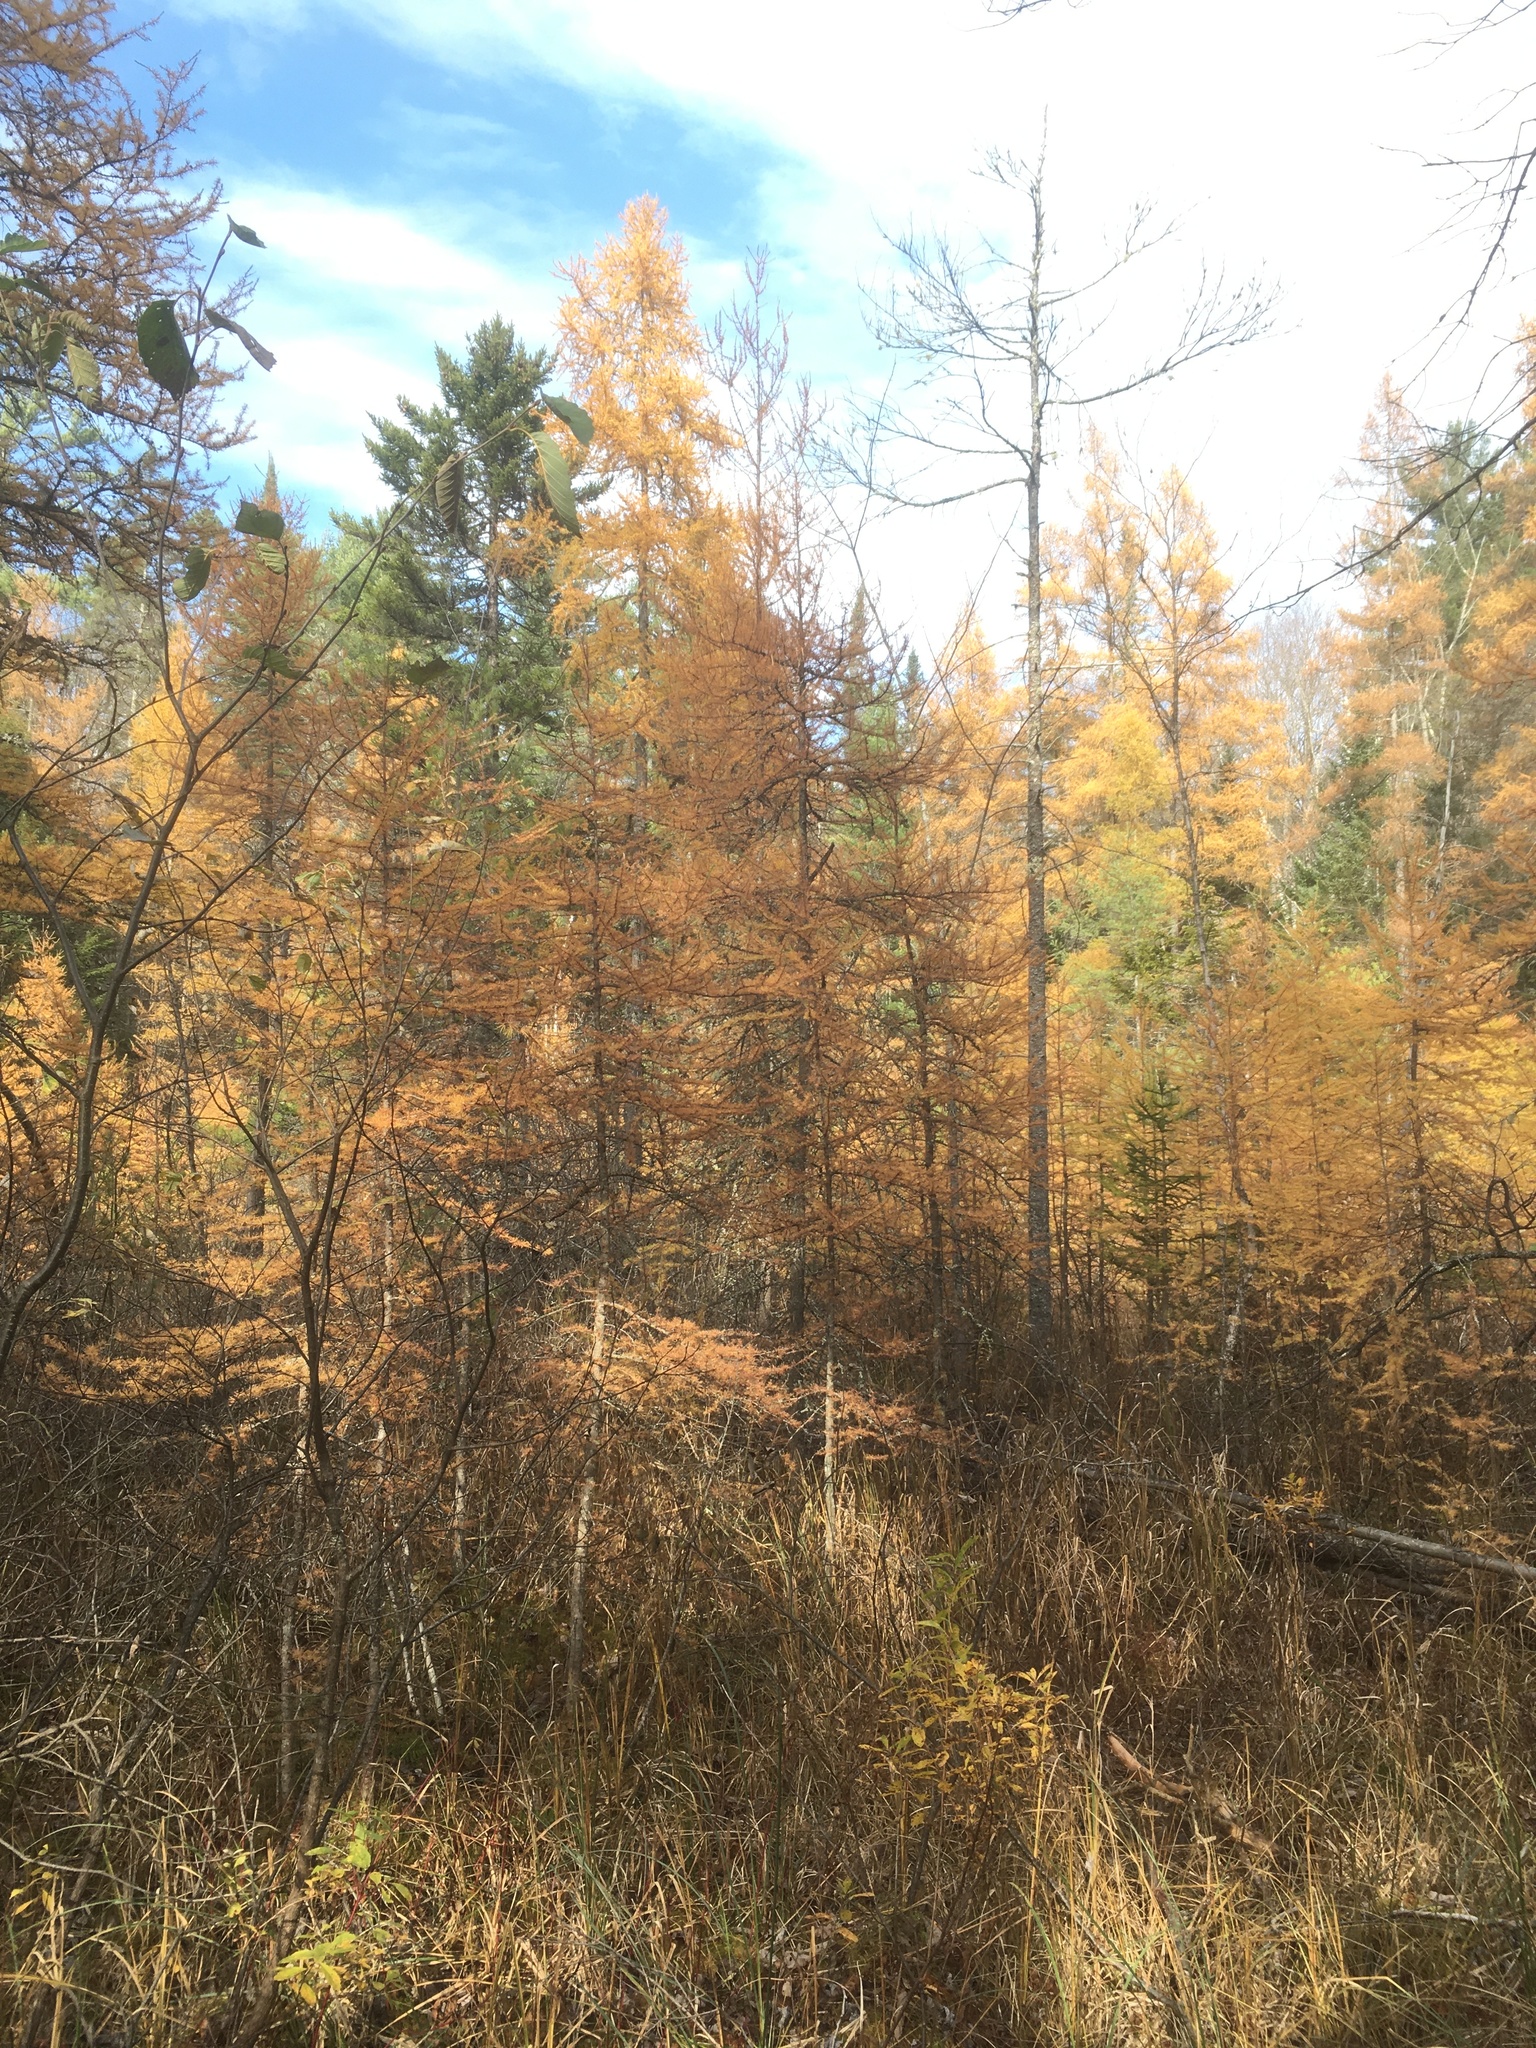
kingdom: Plantae
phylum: Tracheophyta
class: Pinopsida
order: Pinales
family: Pinaceae
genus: Larix
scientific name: Larix laricina
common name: American larch
